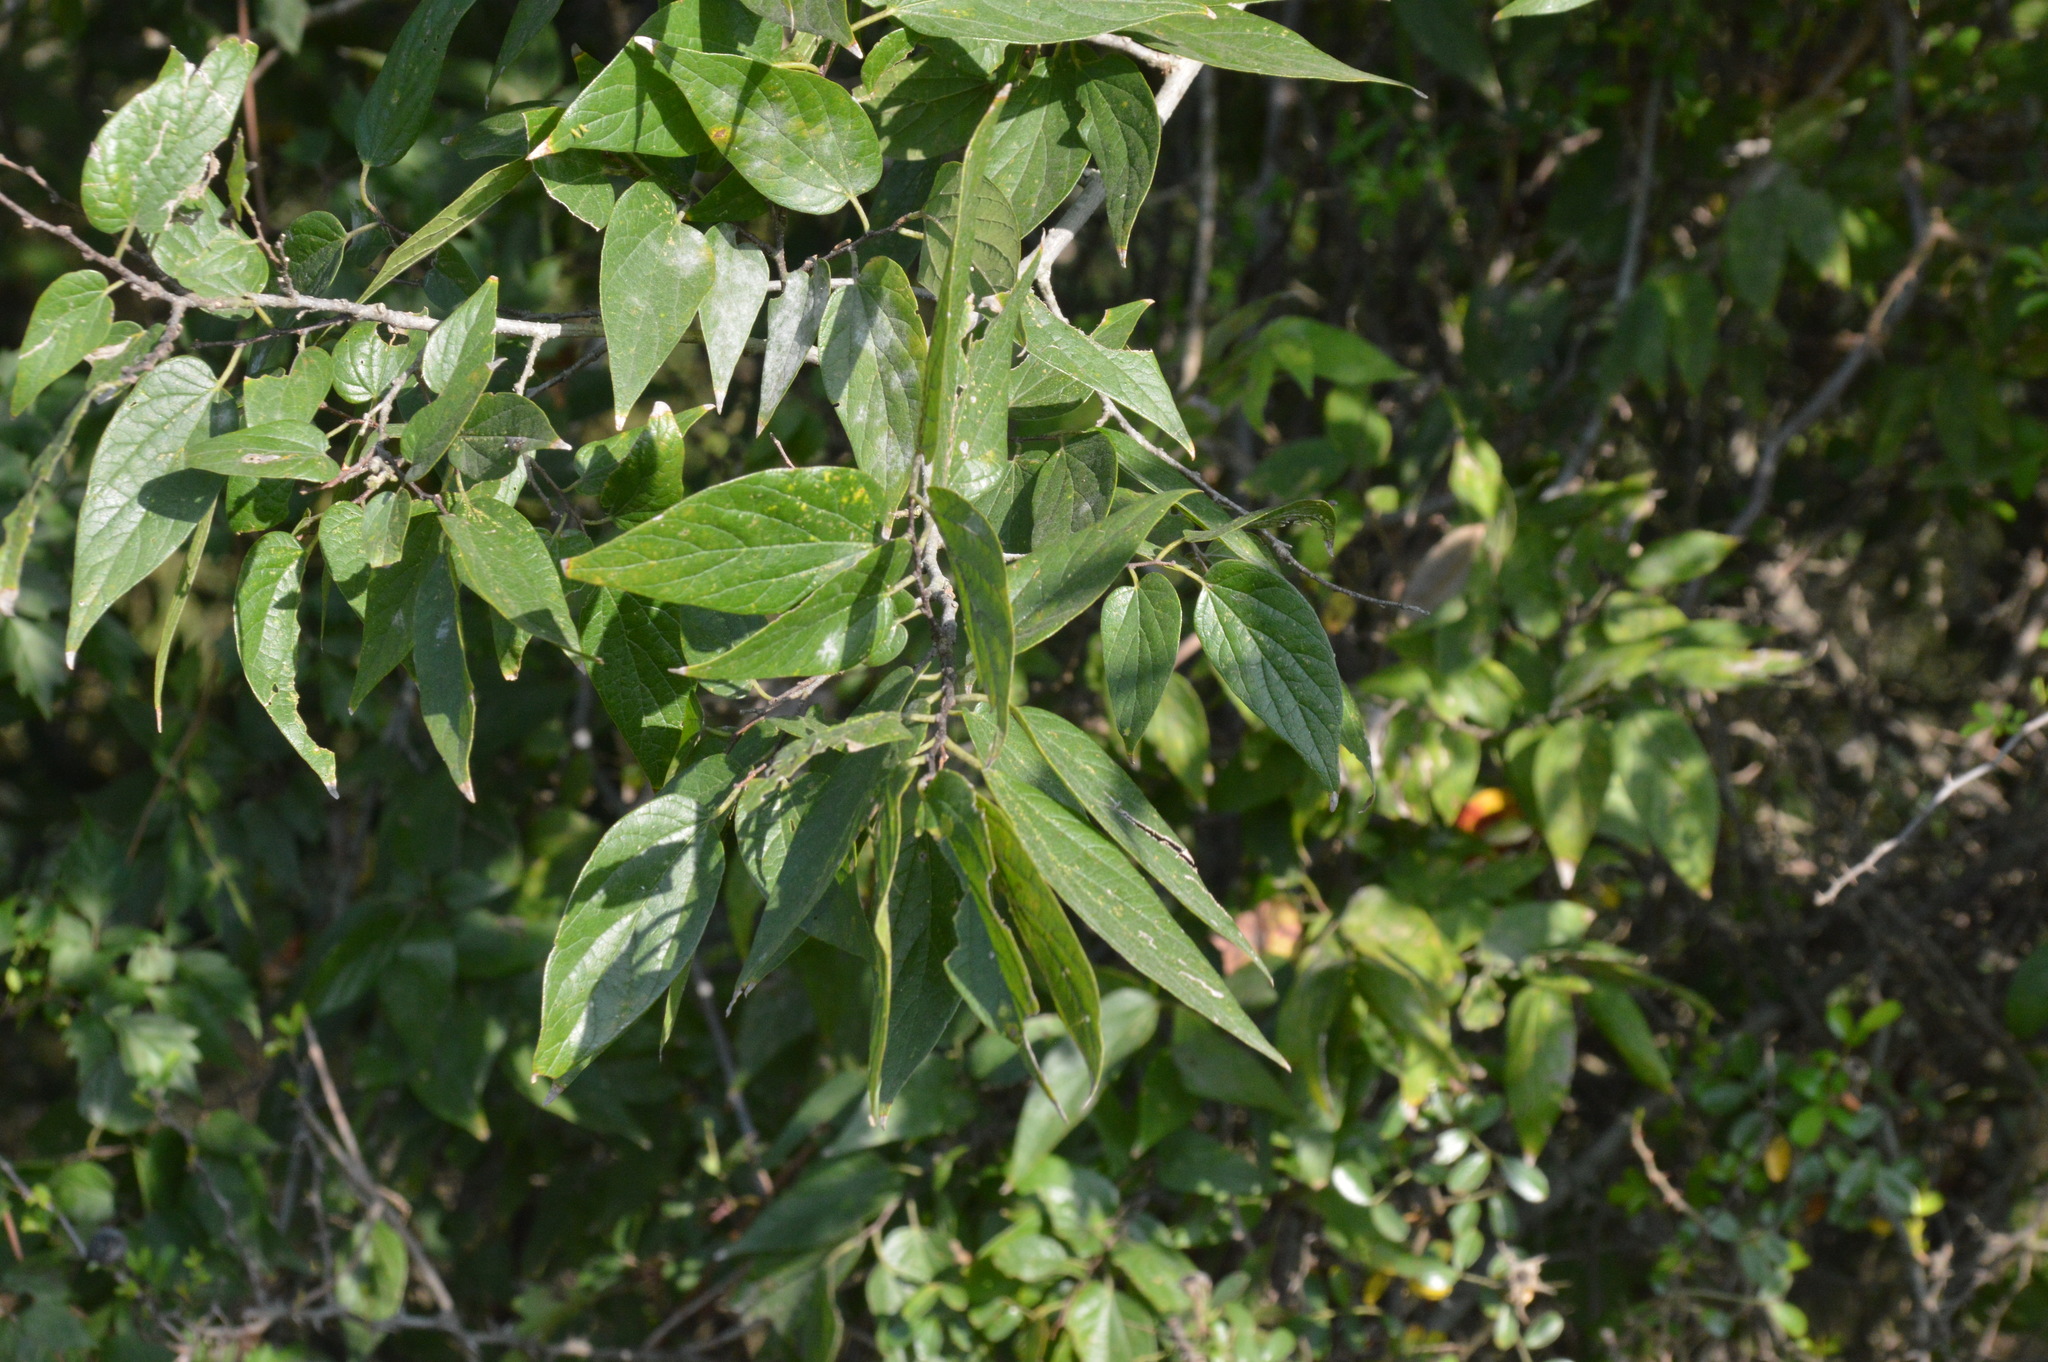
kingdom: Plantae
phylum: Tracheophyta
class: Magnoliopsida
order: Rosales
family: Cannabaceae
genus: Celtis
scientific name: Celtis laevigata
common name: Sugarberry
